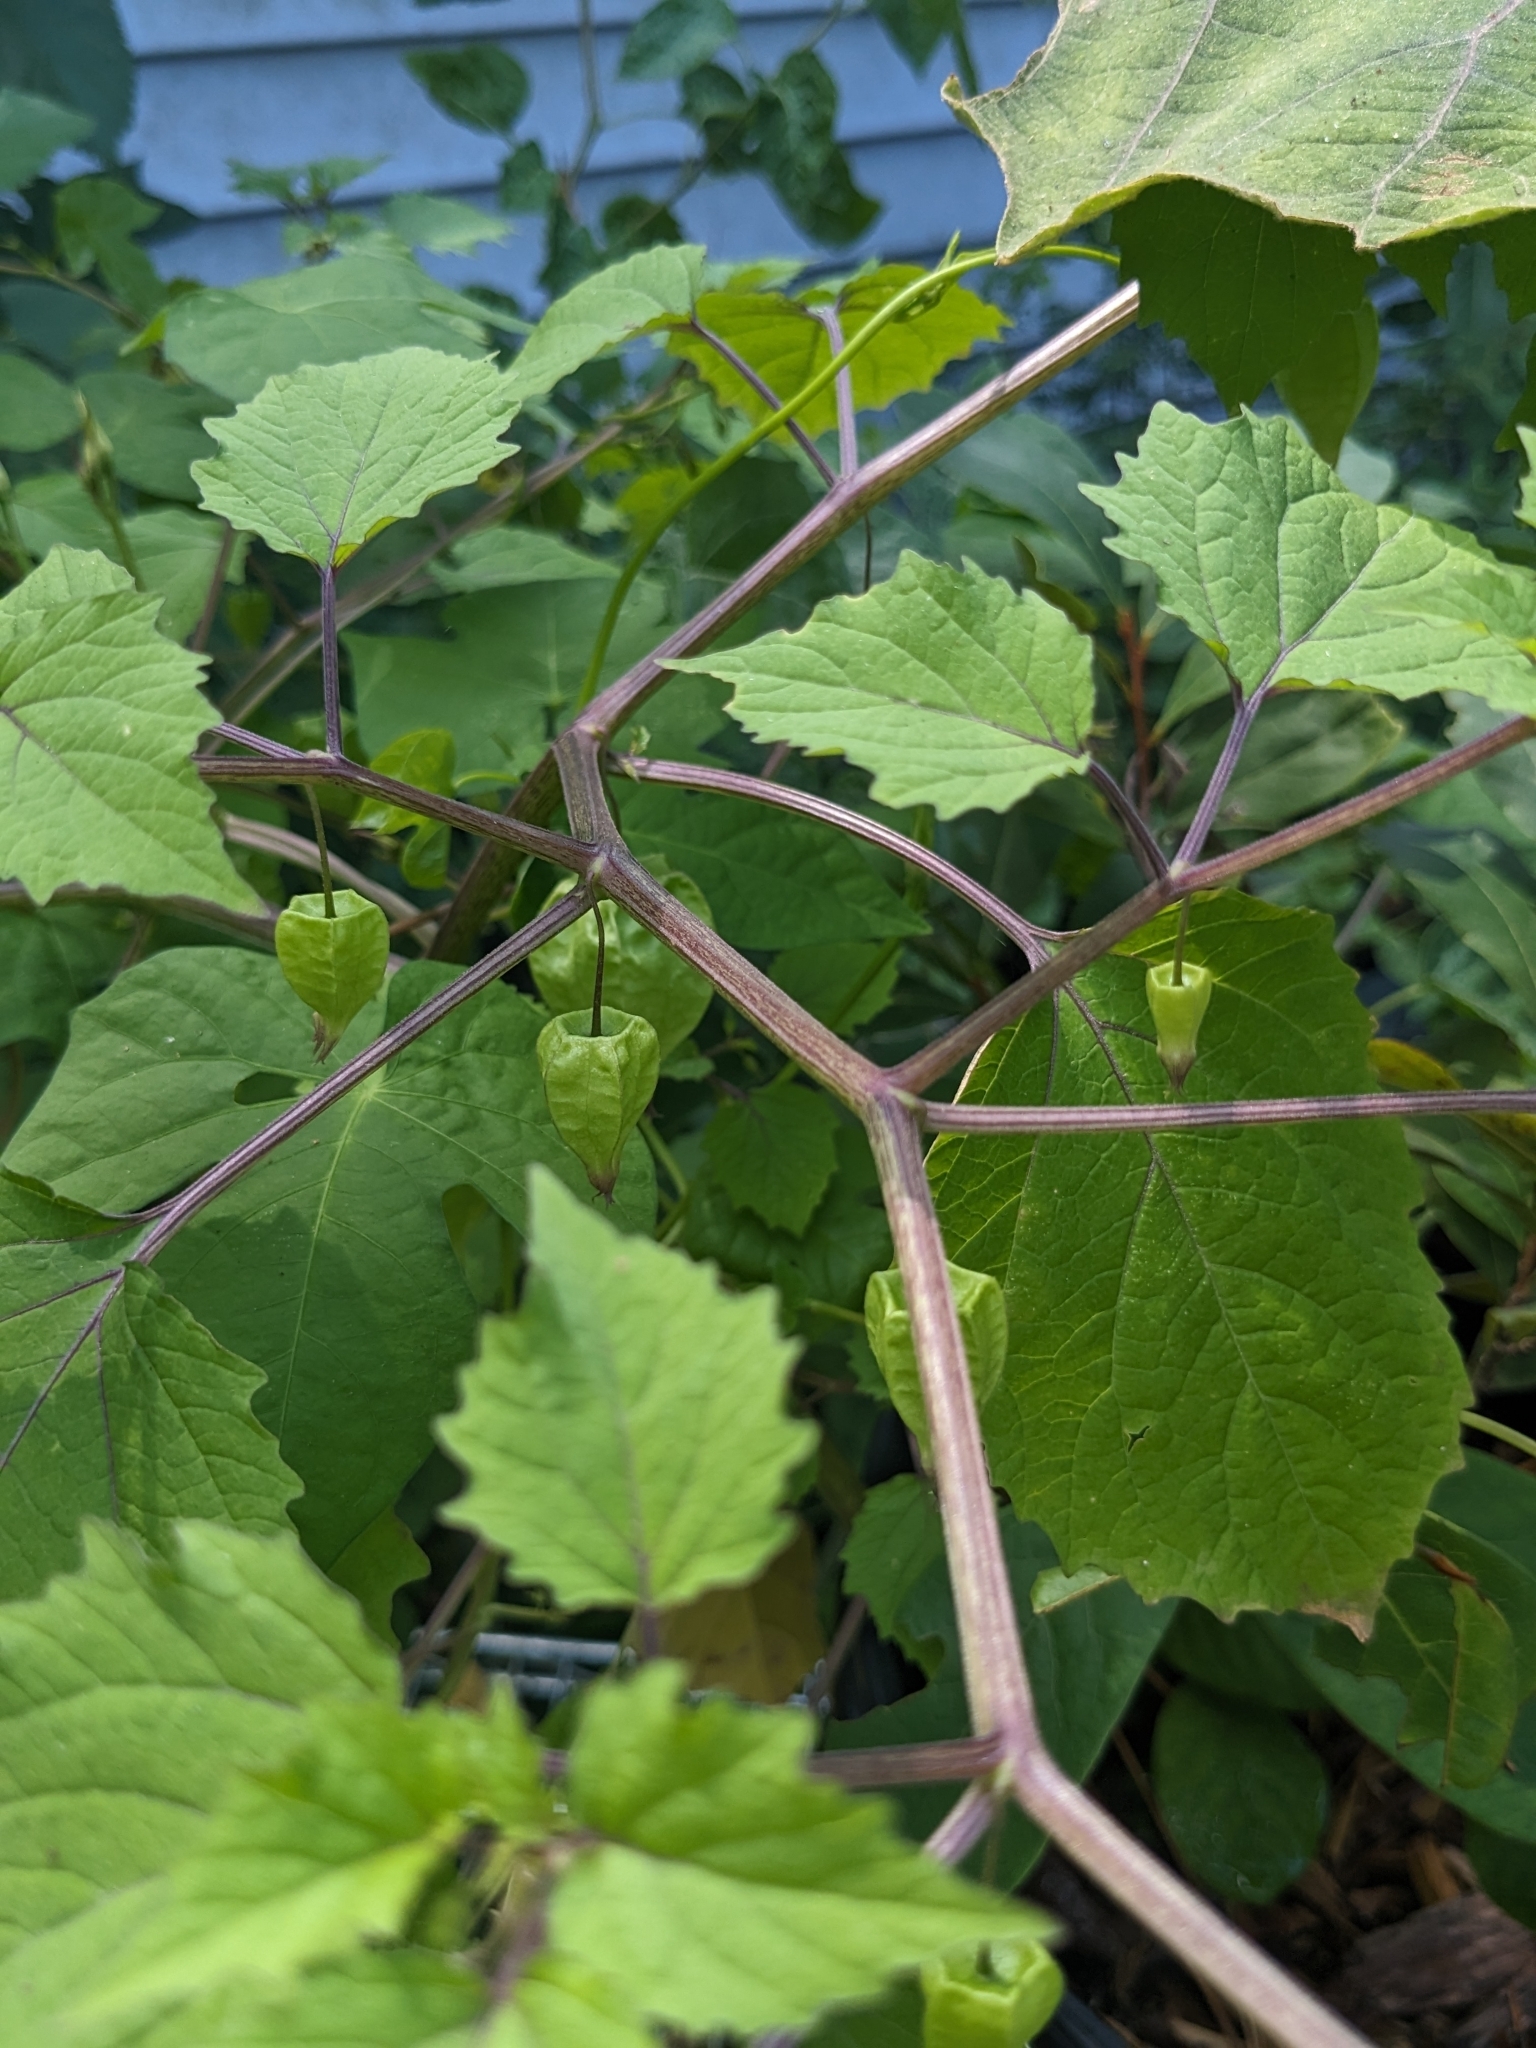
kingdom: Plantae
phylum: Tracheophyta
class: Magnoliopsida
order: Solanales
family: Solanaceae
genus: Physalis
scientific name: Physalis cordata
